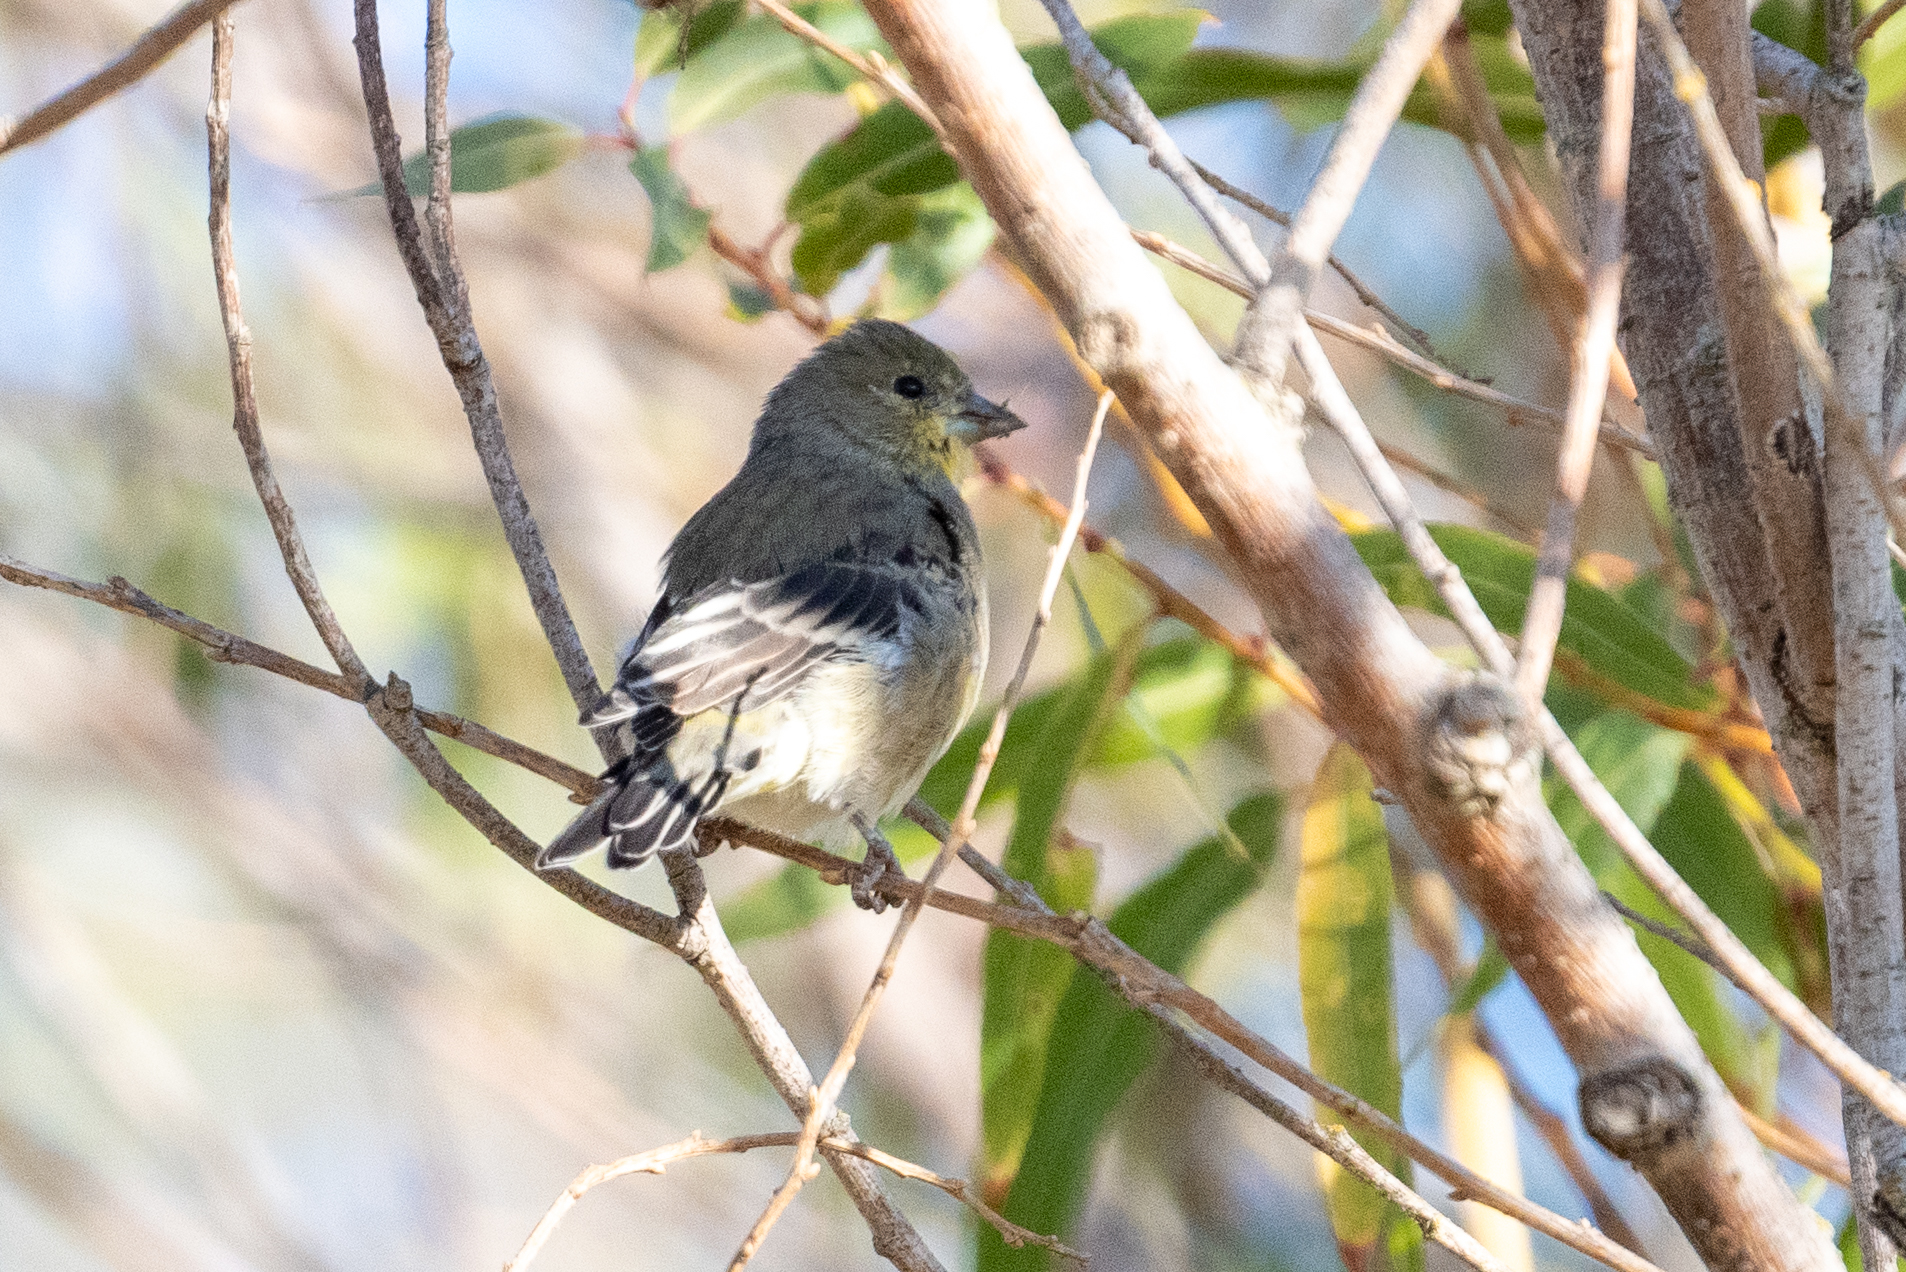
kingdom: Animalia
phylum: Chordata
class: Aves
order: Passeriformes
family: Fringillidae
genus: Spinus
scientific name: Spinus psaltria
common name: Lesser goldfinch
